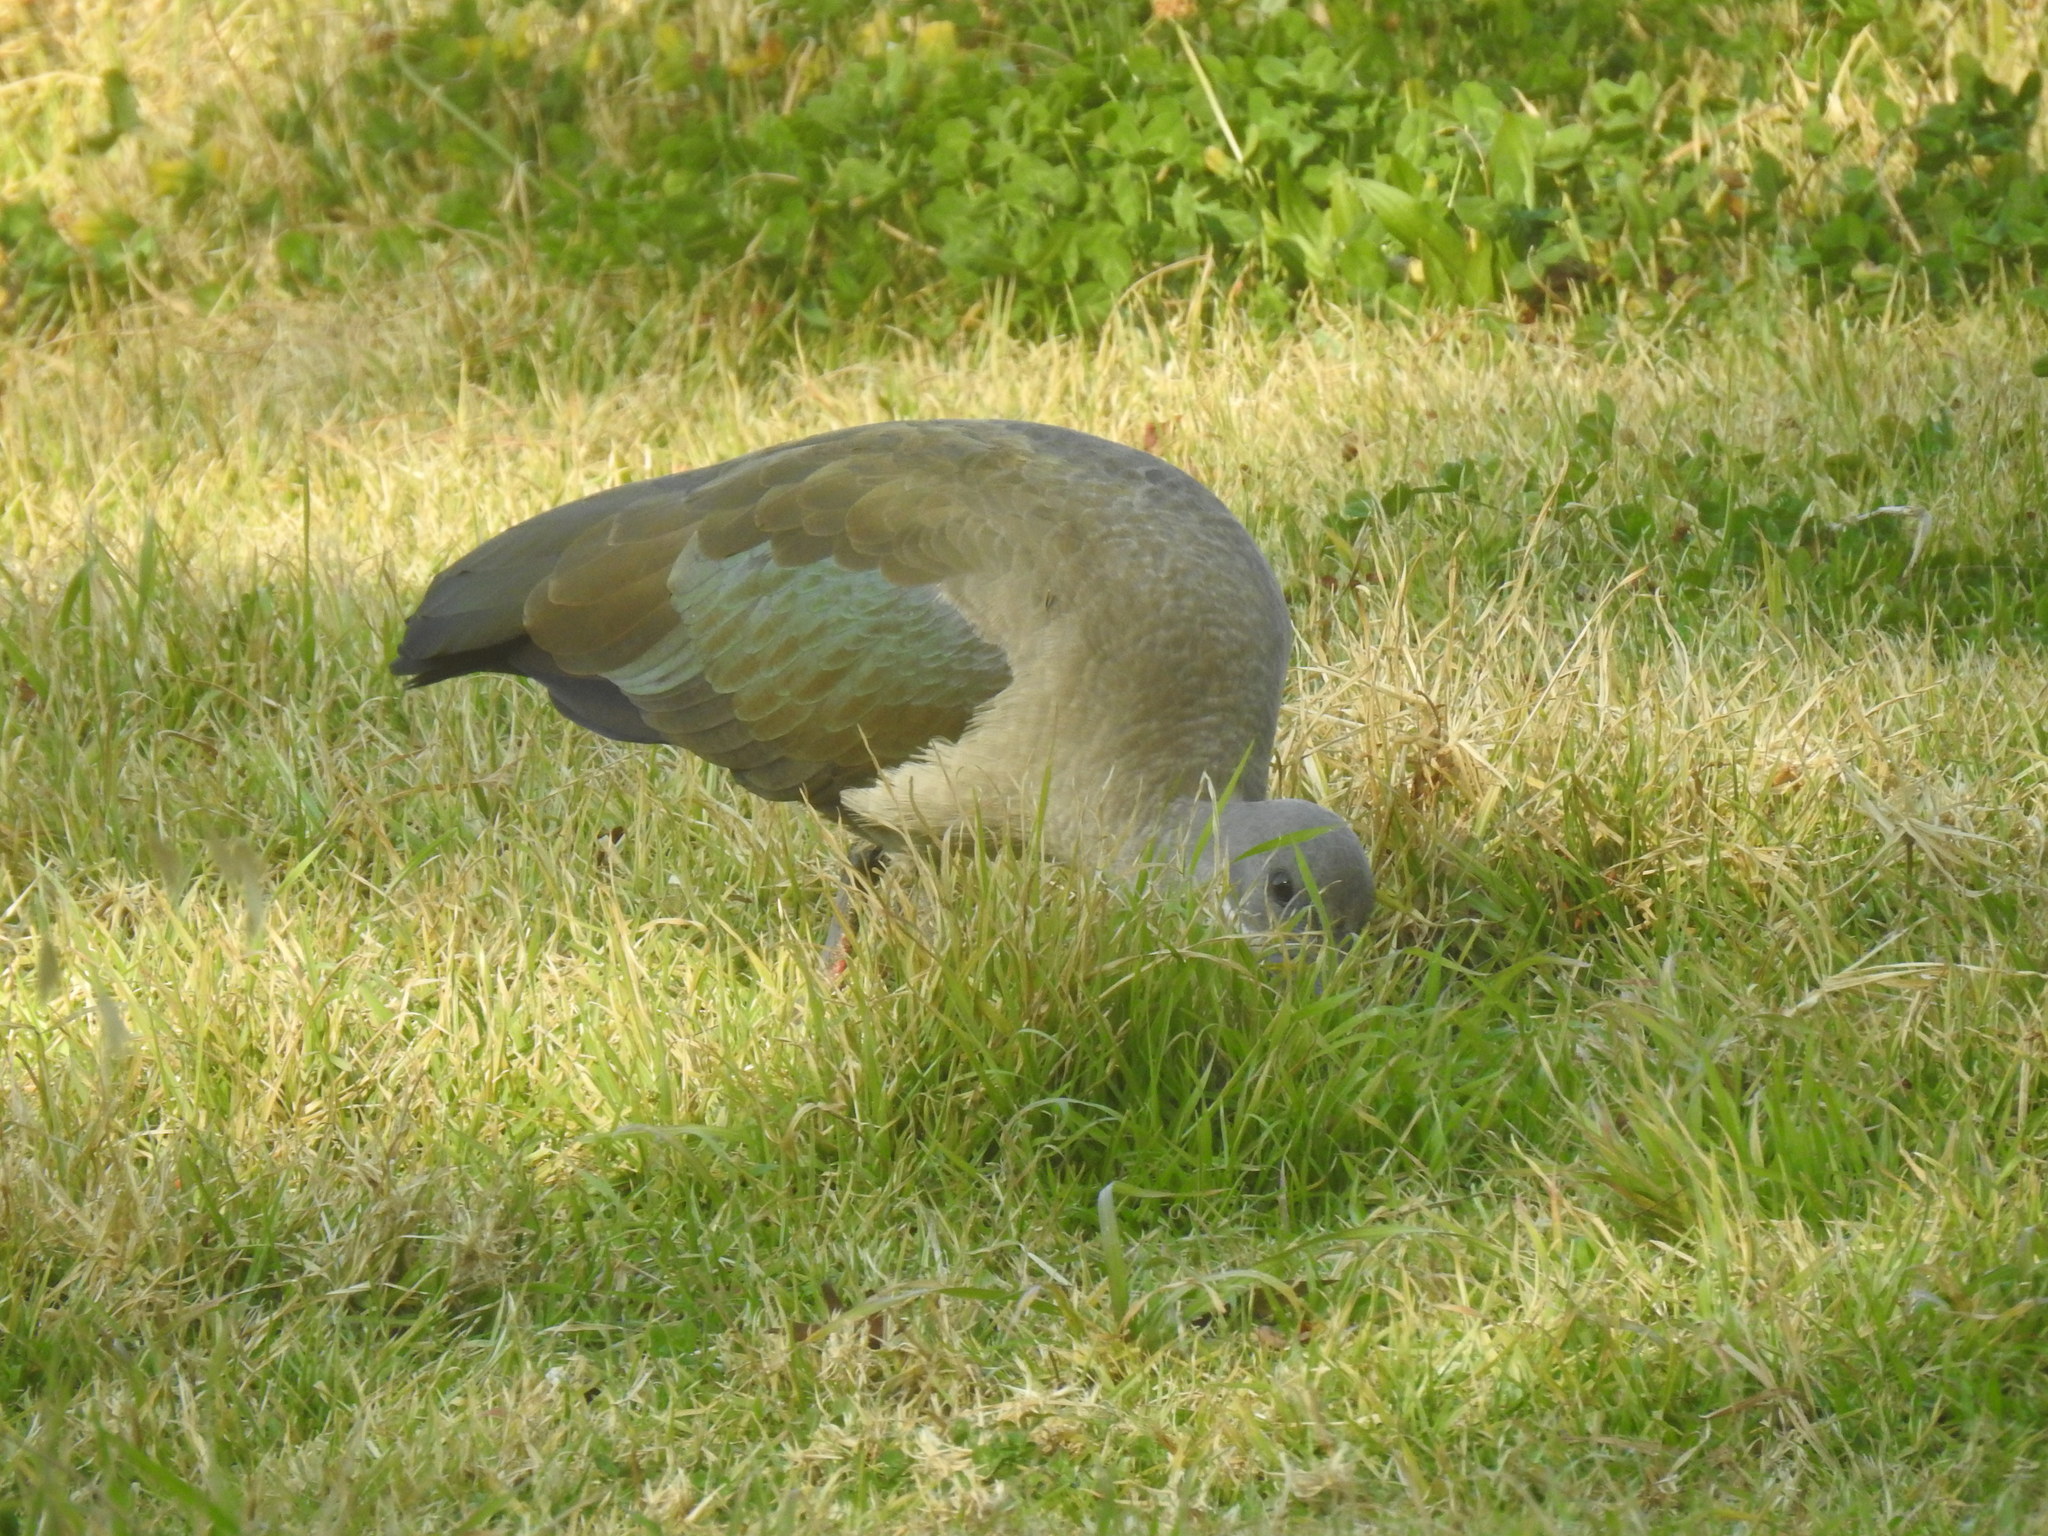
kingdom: Animalia
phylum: Chordata
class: Aves
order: Pelecaniformes
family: Threskiornithidae
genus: Bostrychia
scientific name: Bostrychia hagedash
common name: Hadada ibis
